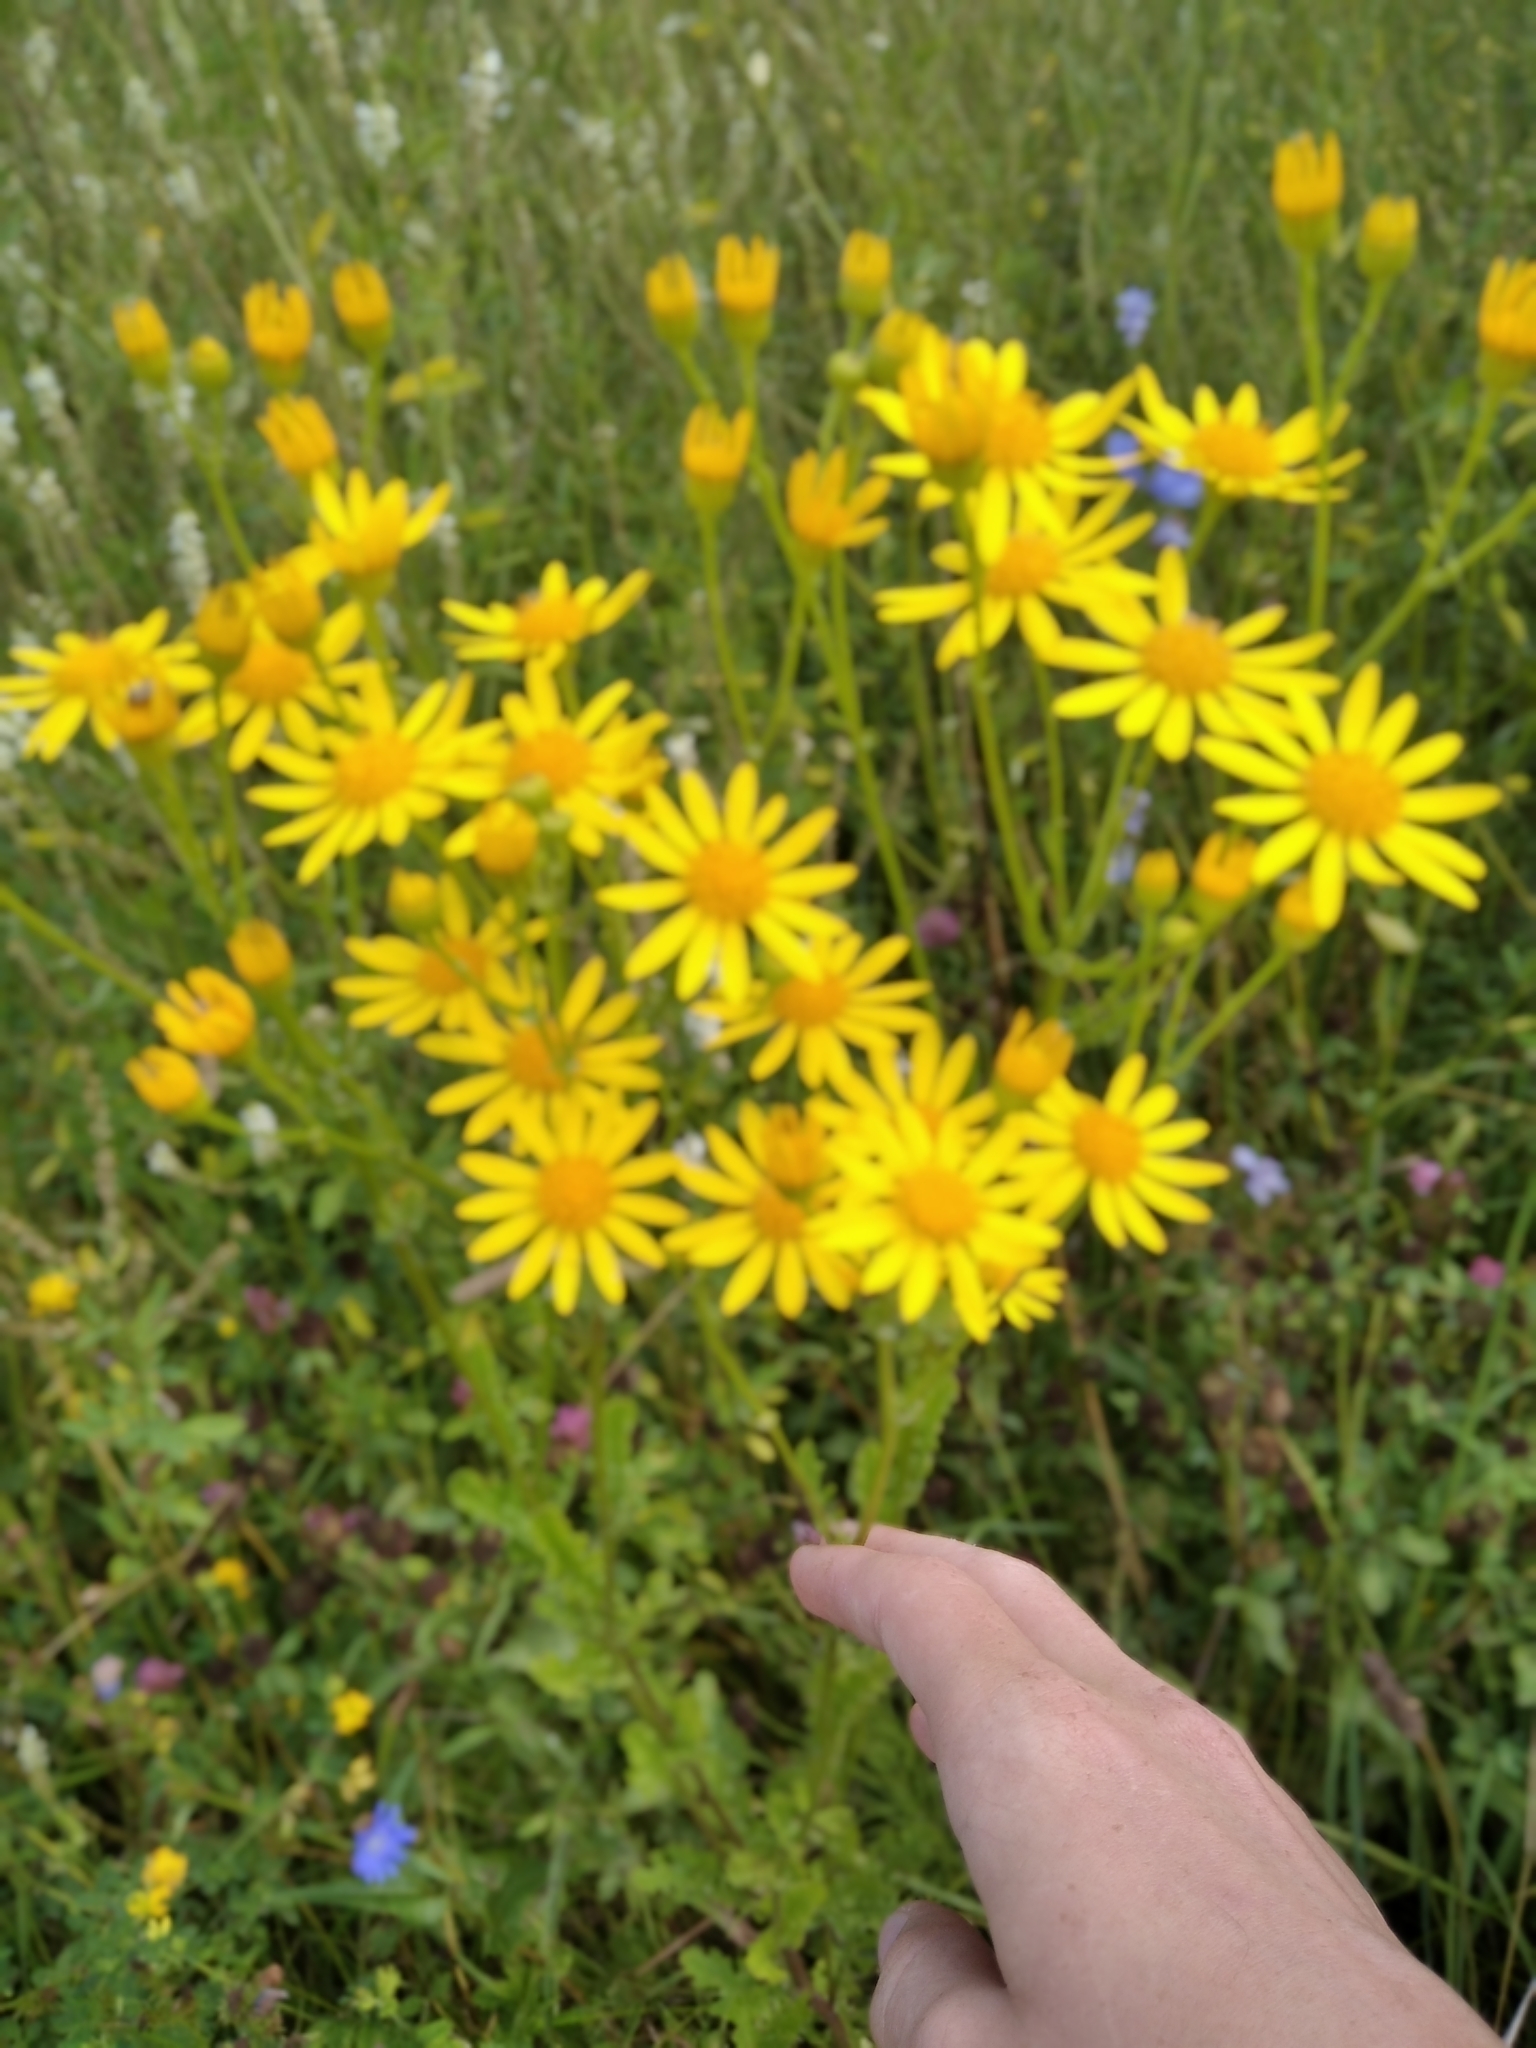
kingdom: Plantae
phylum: Tracheophyta
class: Magnoliopsida
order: Asterales
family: Asteraceae
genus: Jacobaea
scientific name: Jacobaea vulgaris
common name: Stinking willie
